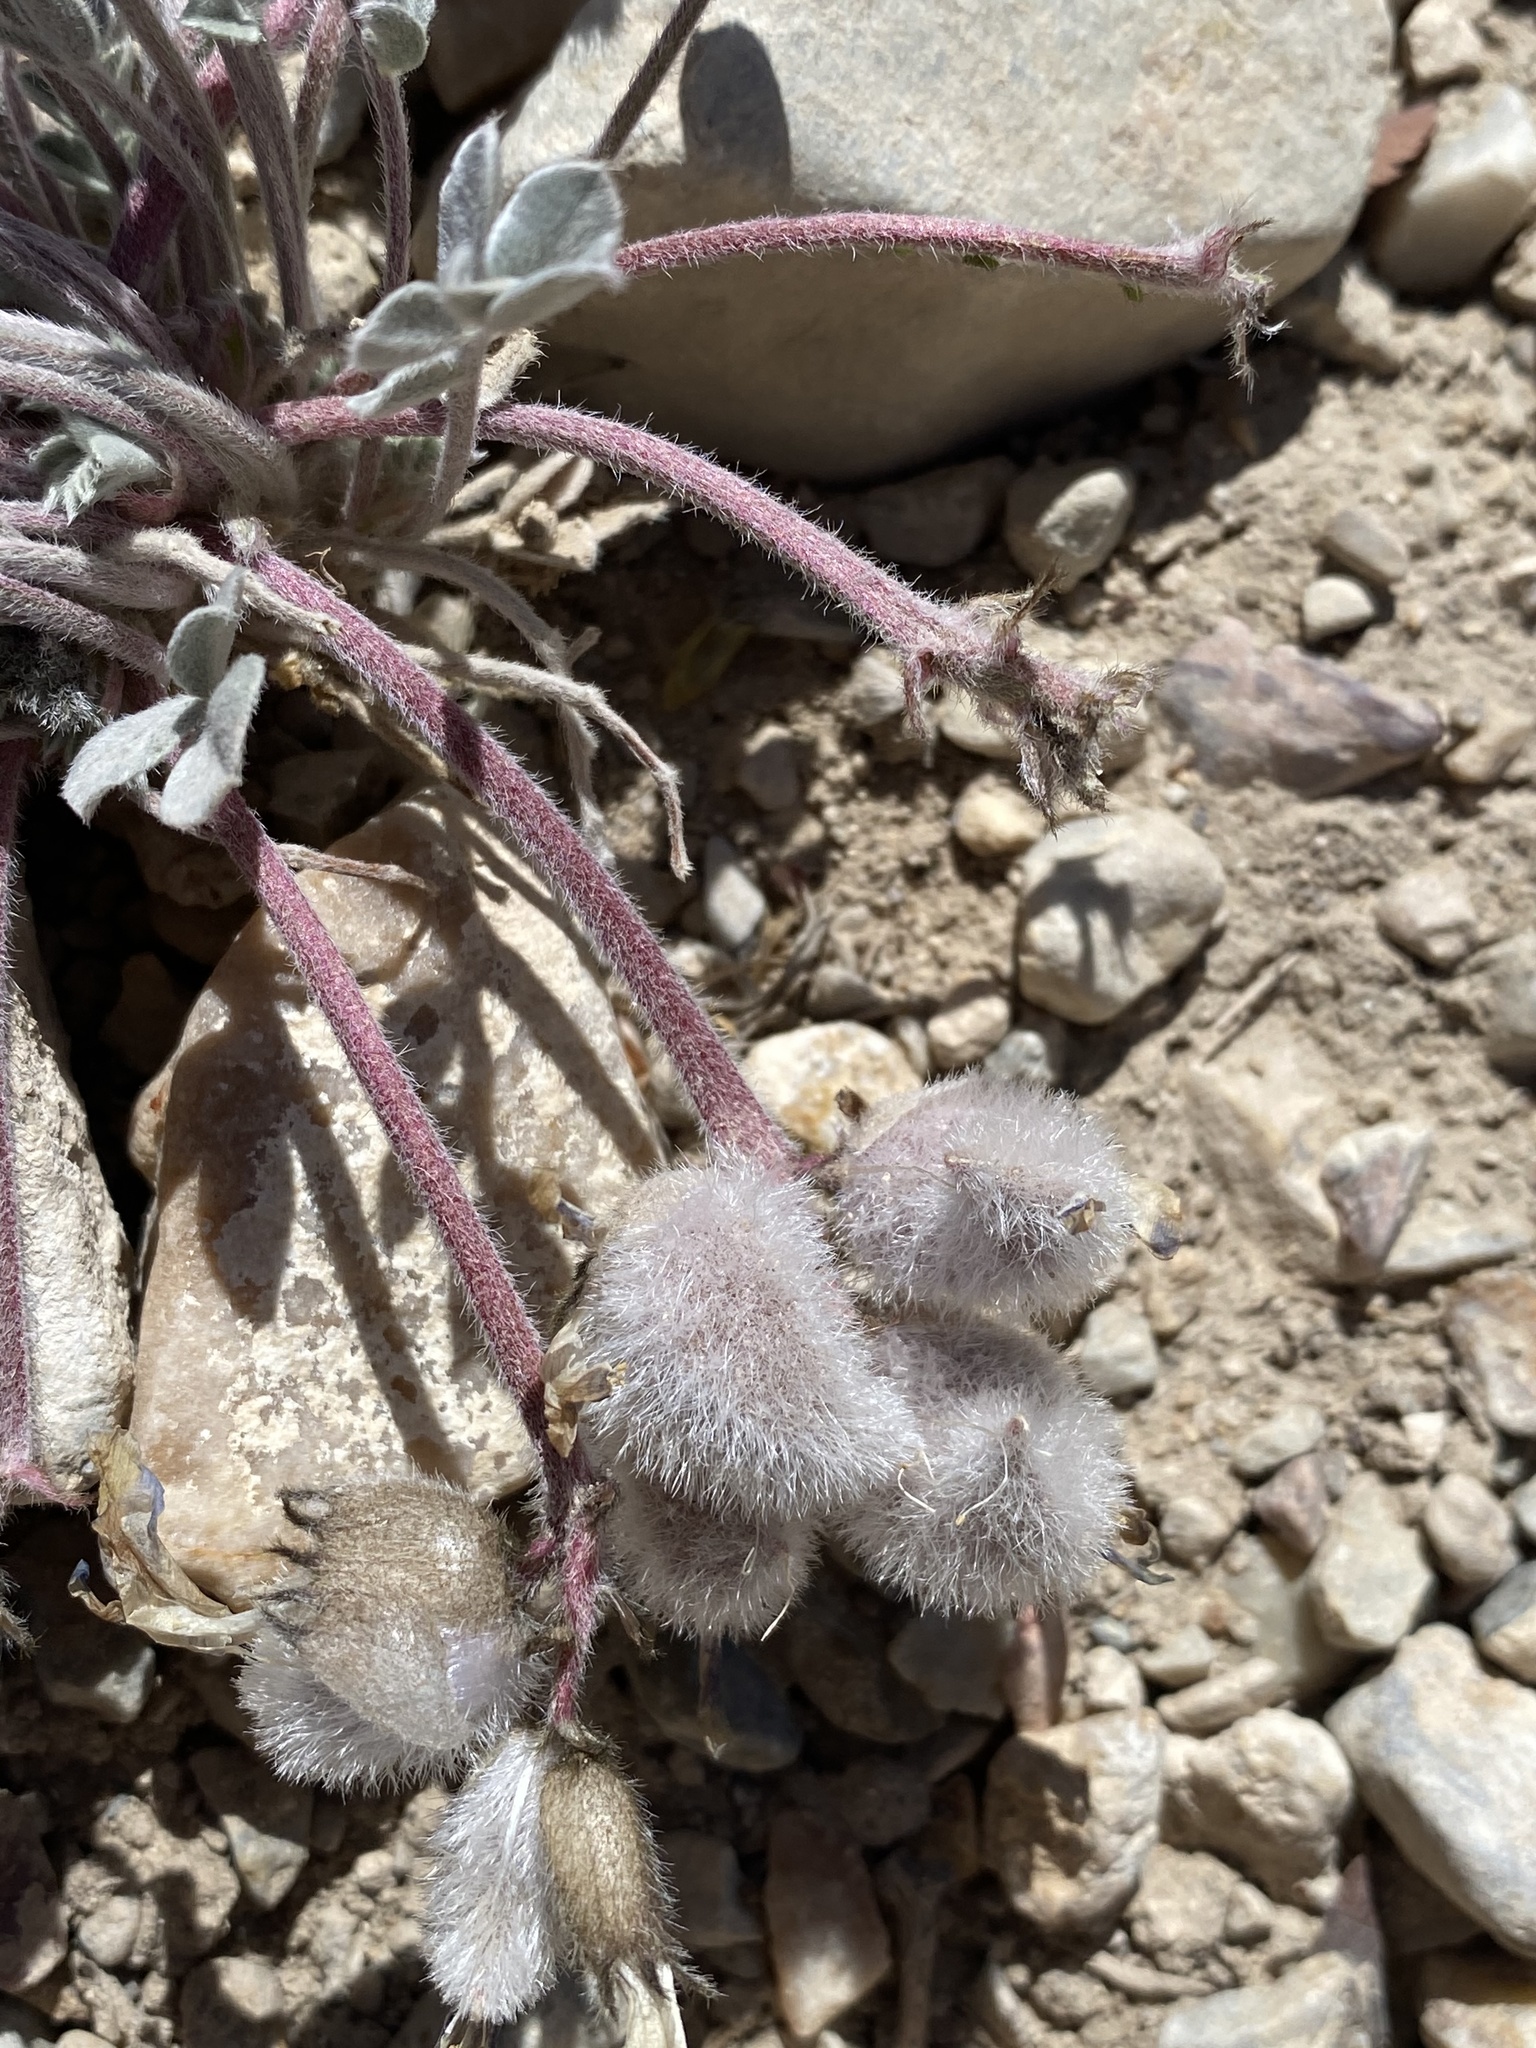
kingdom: Plantae
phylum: Tracheophyta
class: Magnoliopsida
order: Fabales
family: Fabaceae
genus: Astragalus
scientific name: Astragalus newberryi
